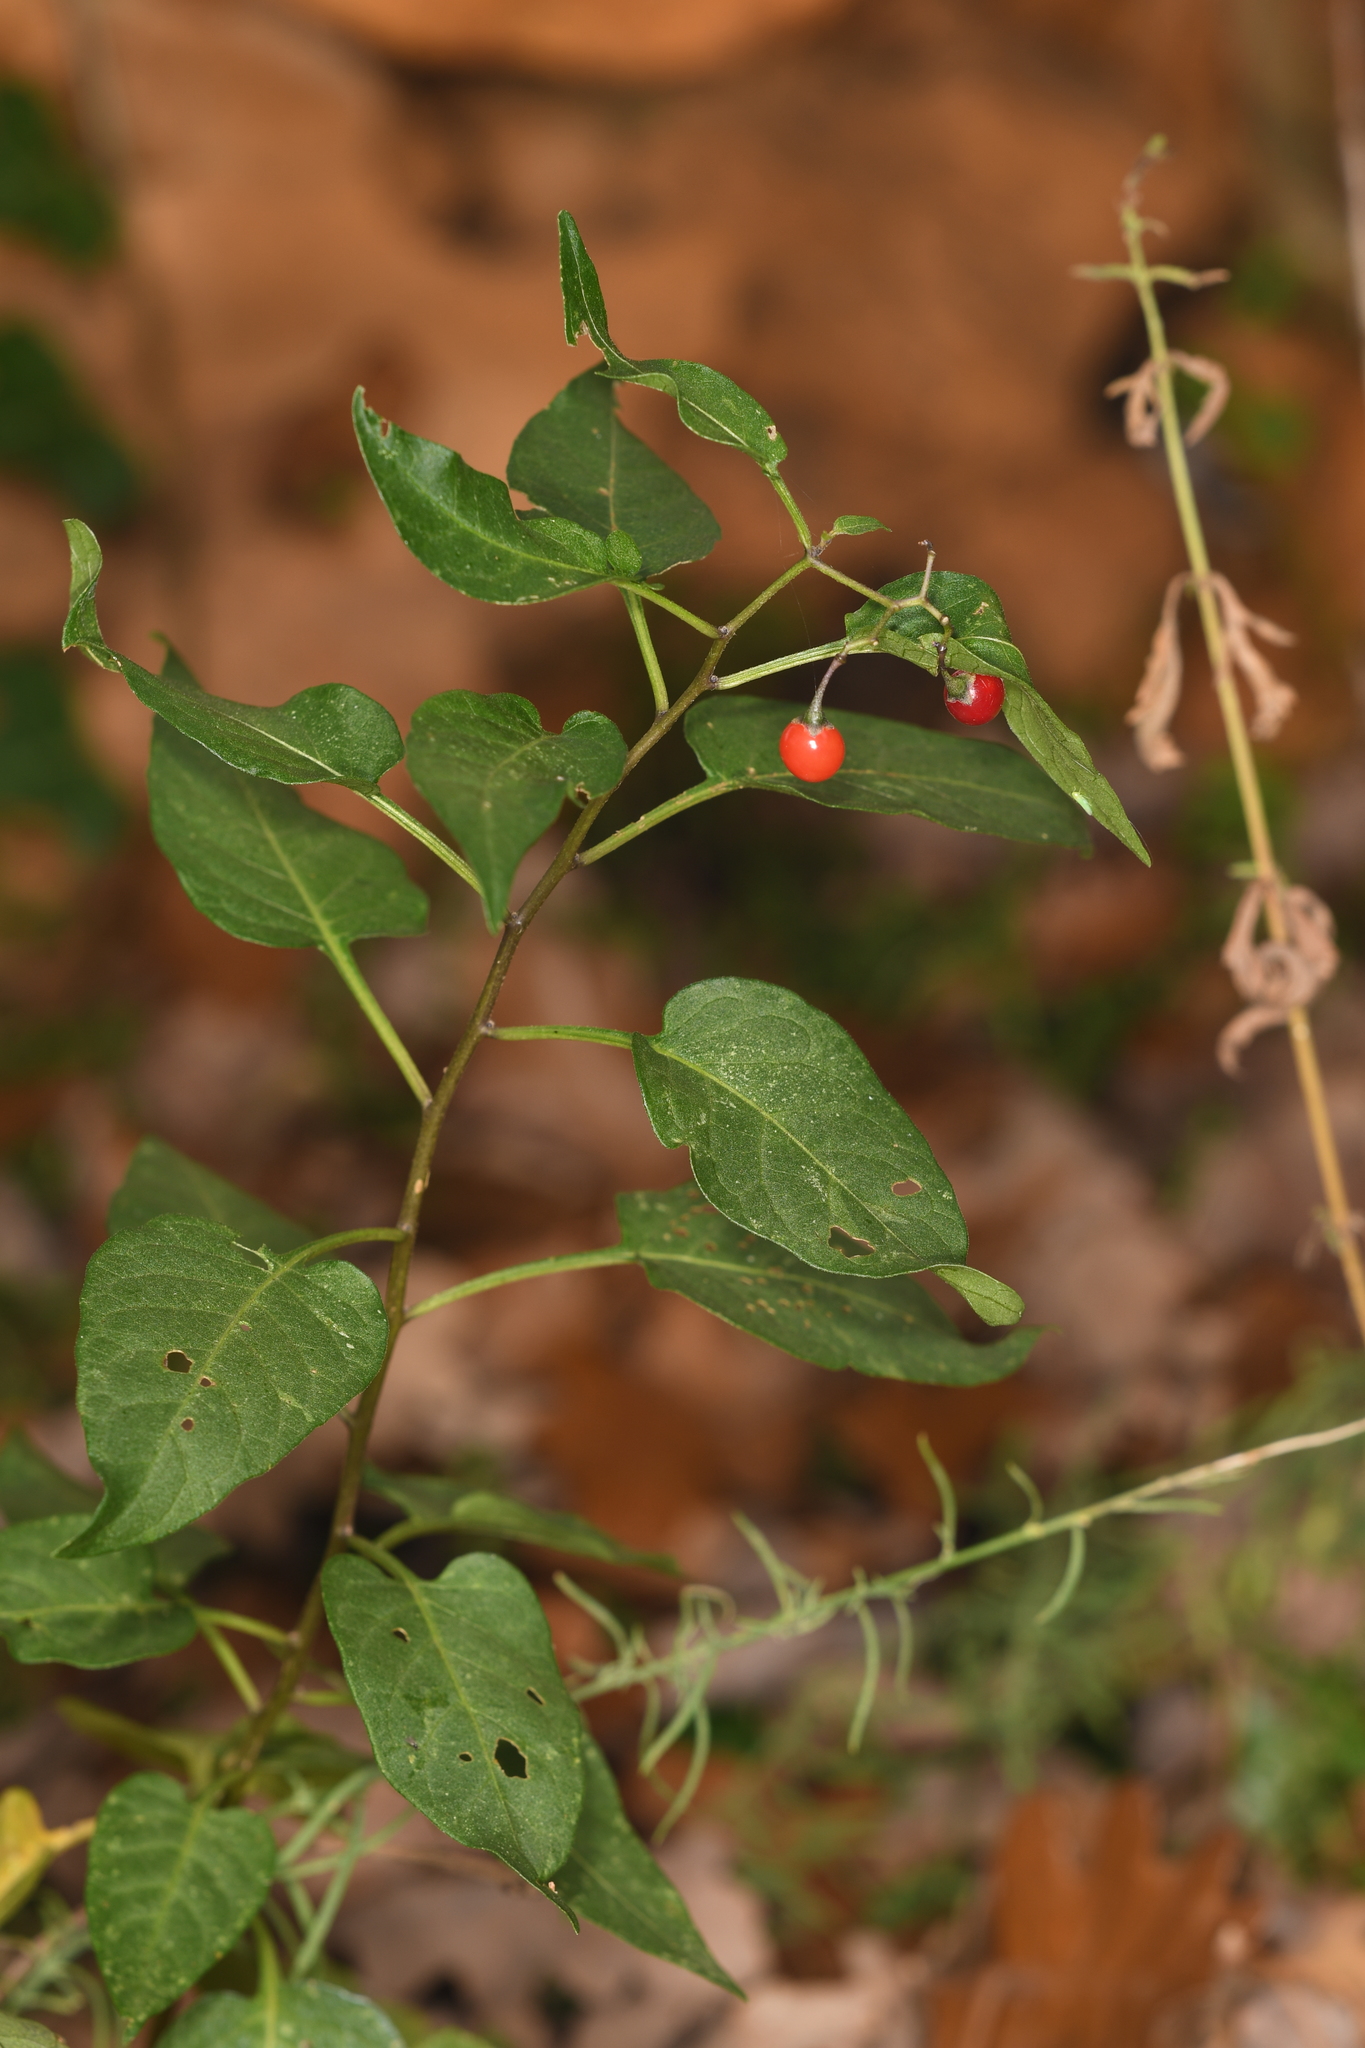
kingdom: Plantae
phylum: Tracheophyta
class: Magnoliopsida
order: Solanales
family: Solanaceae
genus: Solanum
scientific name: Solanum dulcamara
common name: Climbing nightshade
